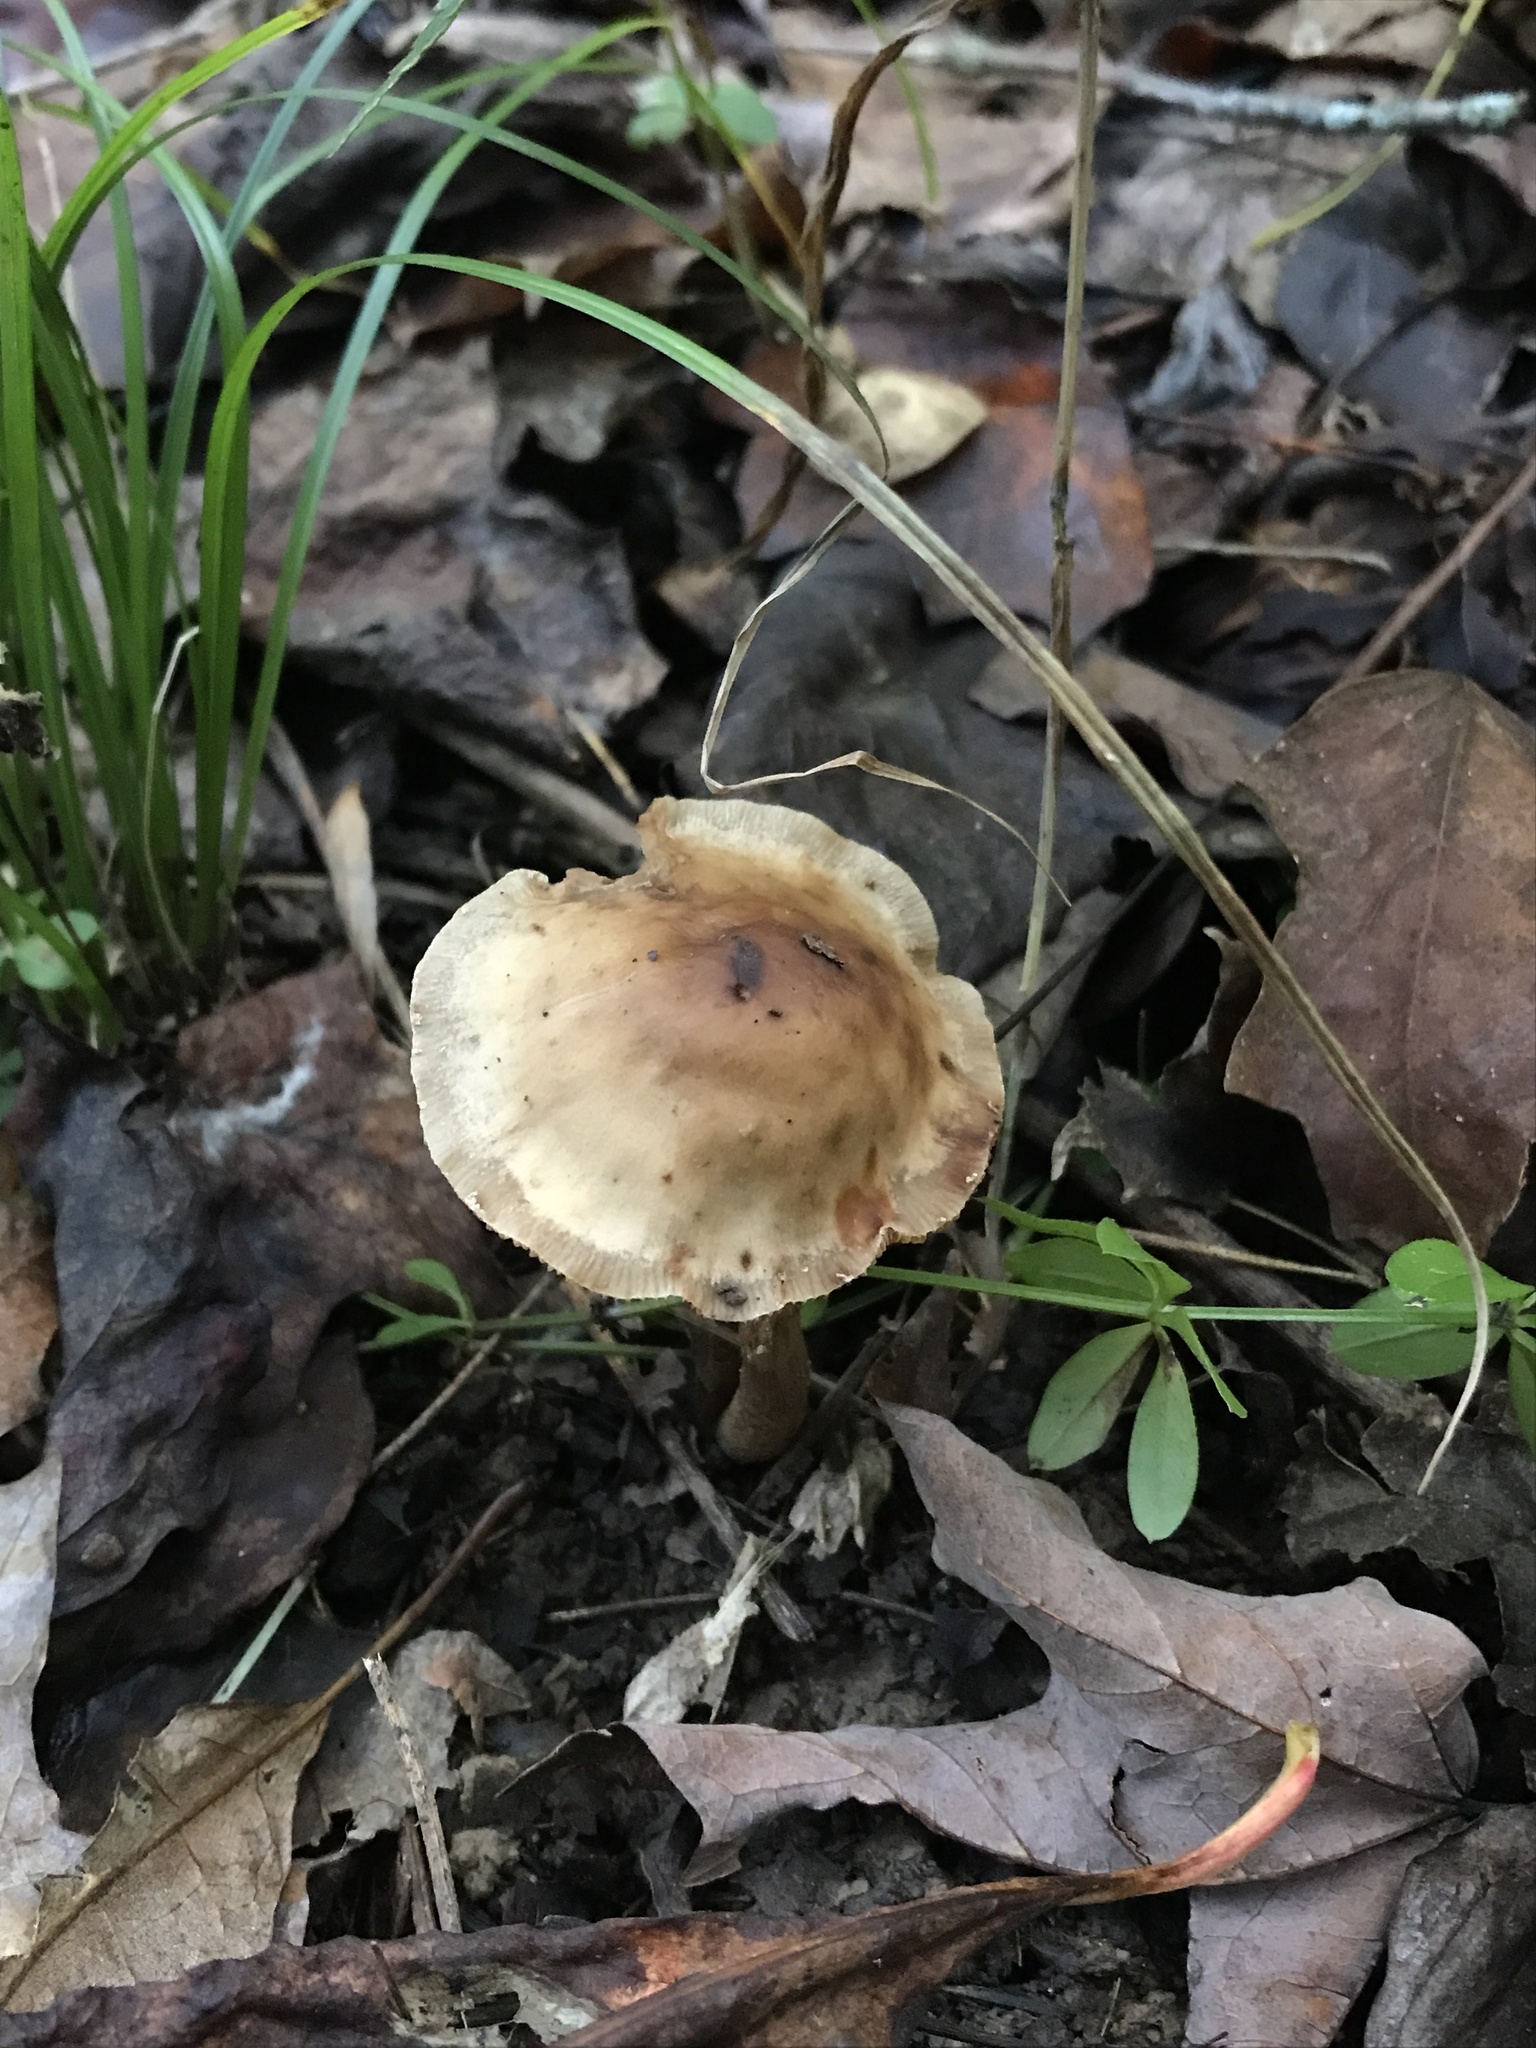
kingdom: Fungi
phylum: Basidiomycota
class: Agaricomycetes
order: Agaricales
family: Omphalotaceae
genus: Gymnopus
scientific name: Gymnopus dryophilus
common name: Penny top
